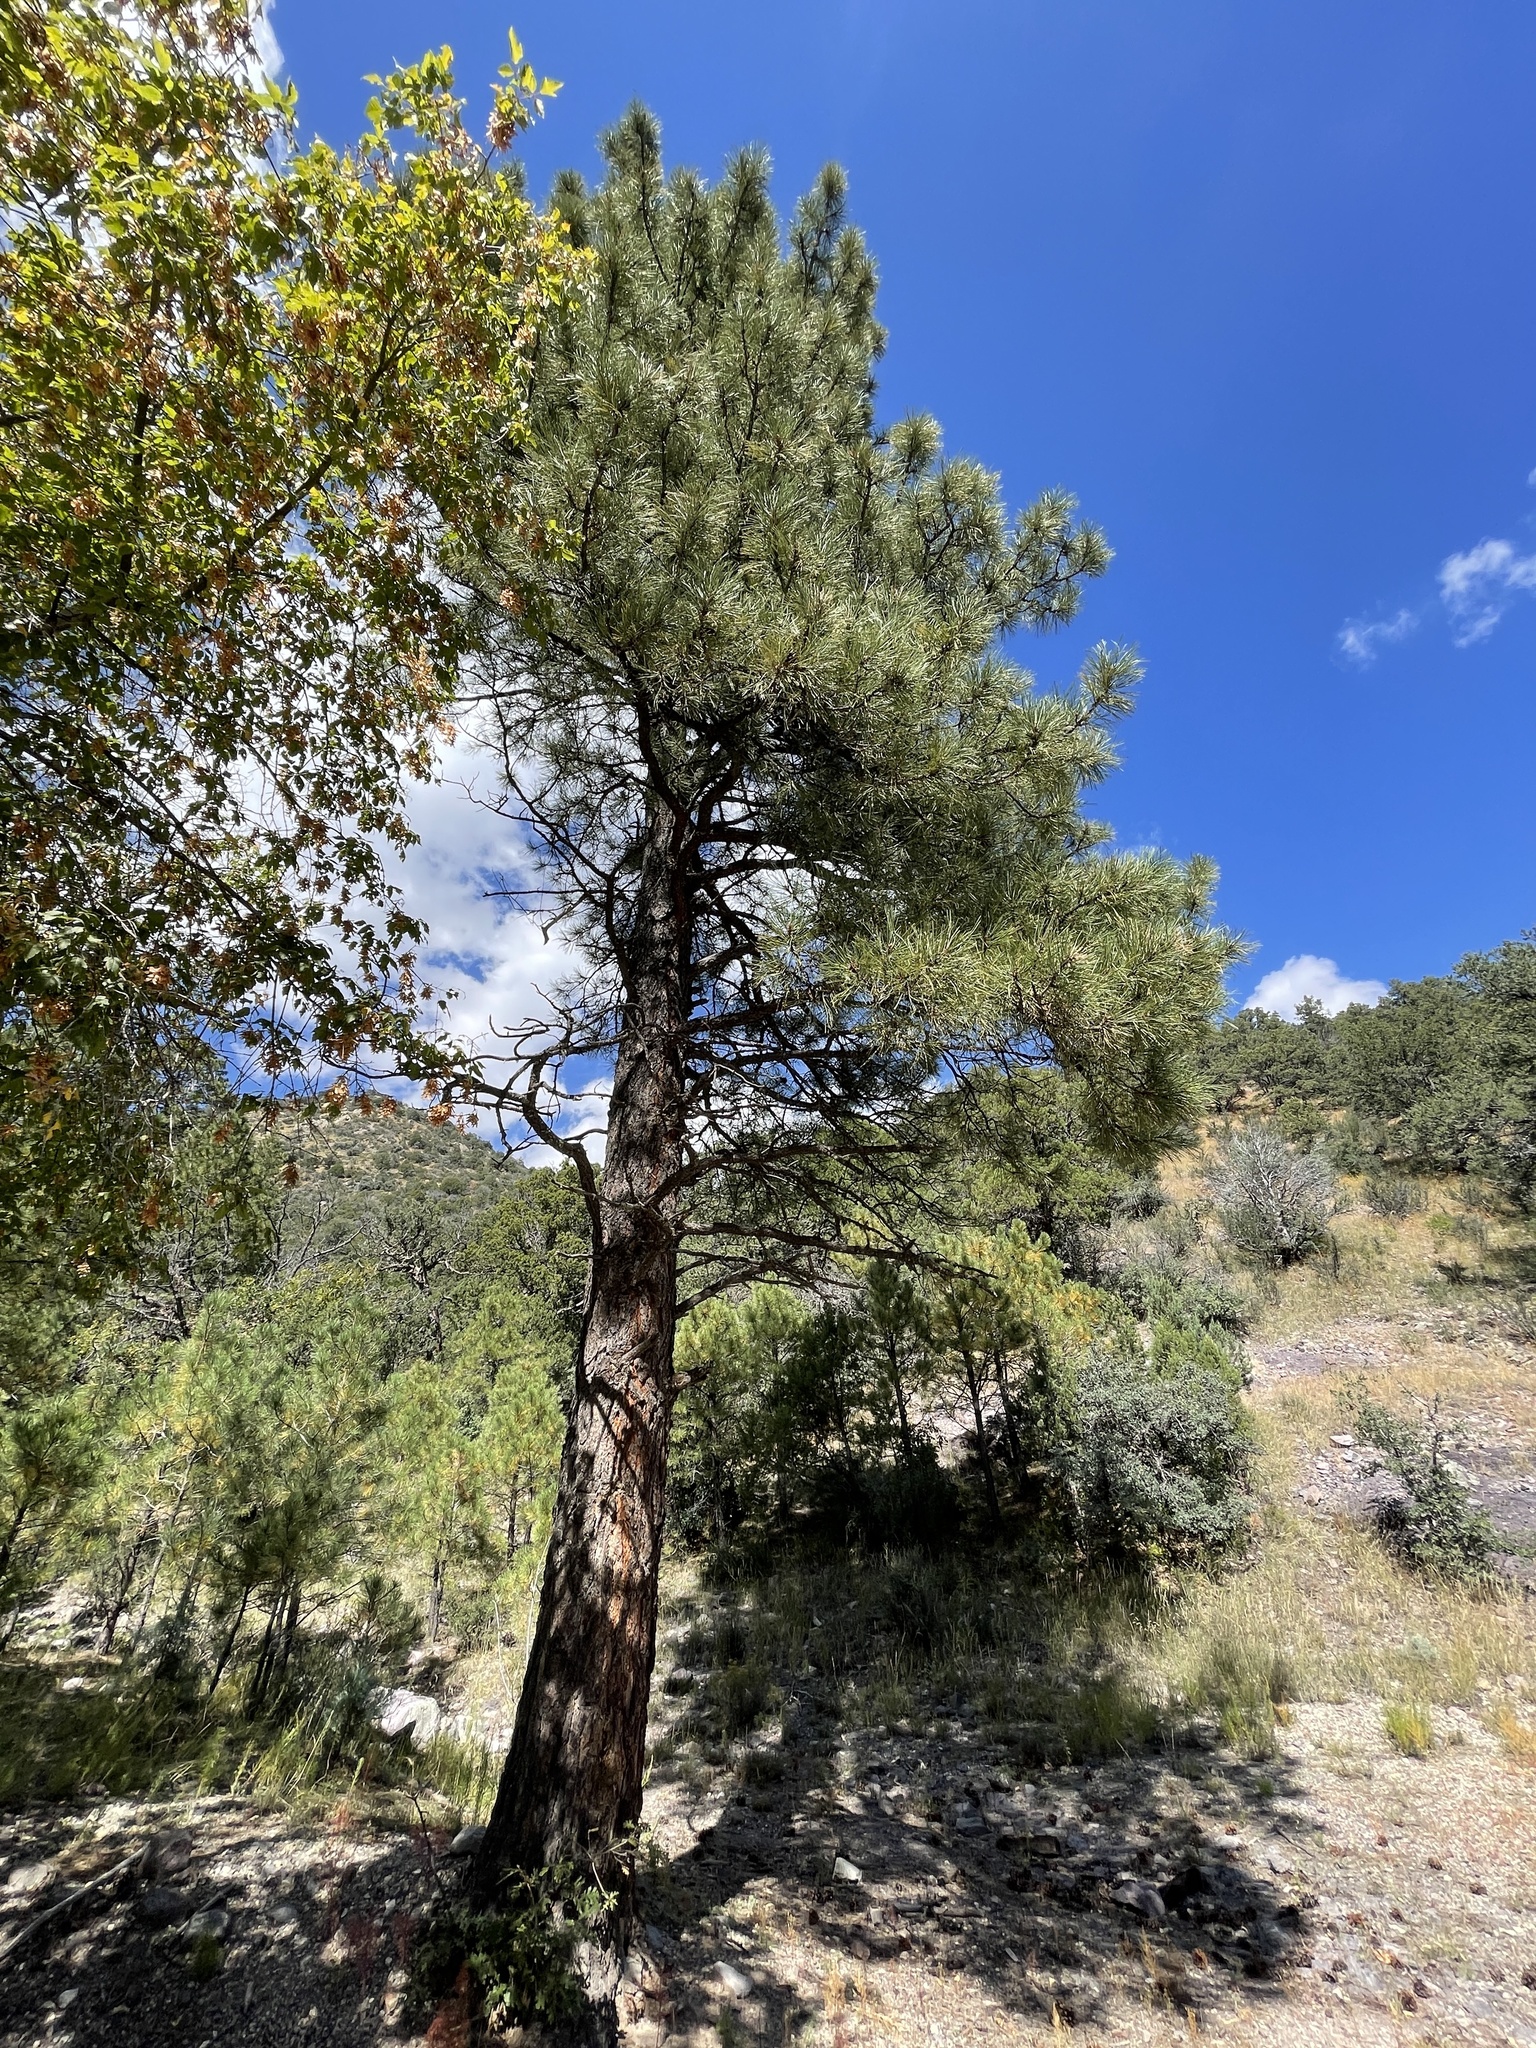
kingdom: Plantae
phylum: Tracheophyta
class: Pinopsida
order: Pinales
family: Pinaceae
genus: Pinus
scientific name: Pinus ponderosa
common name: Western yellow-pine
